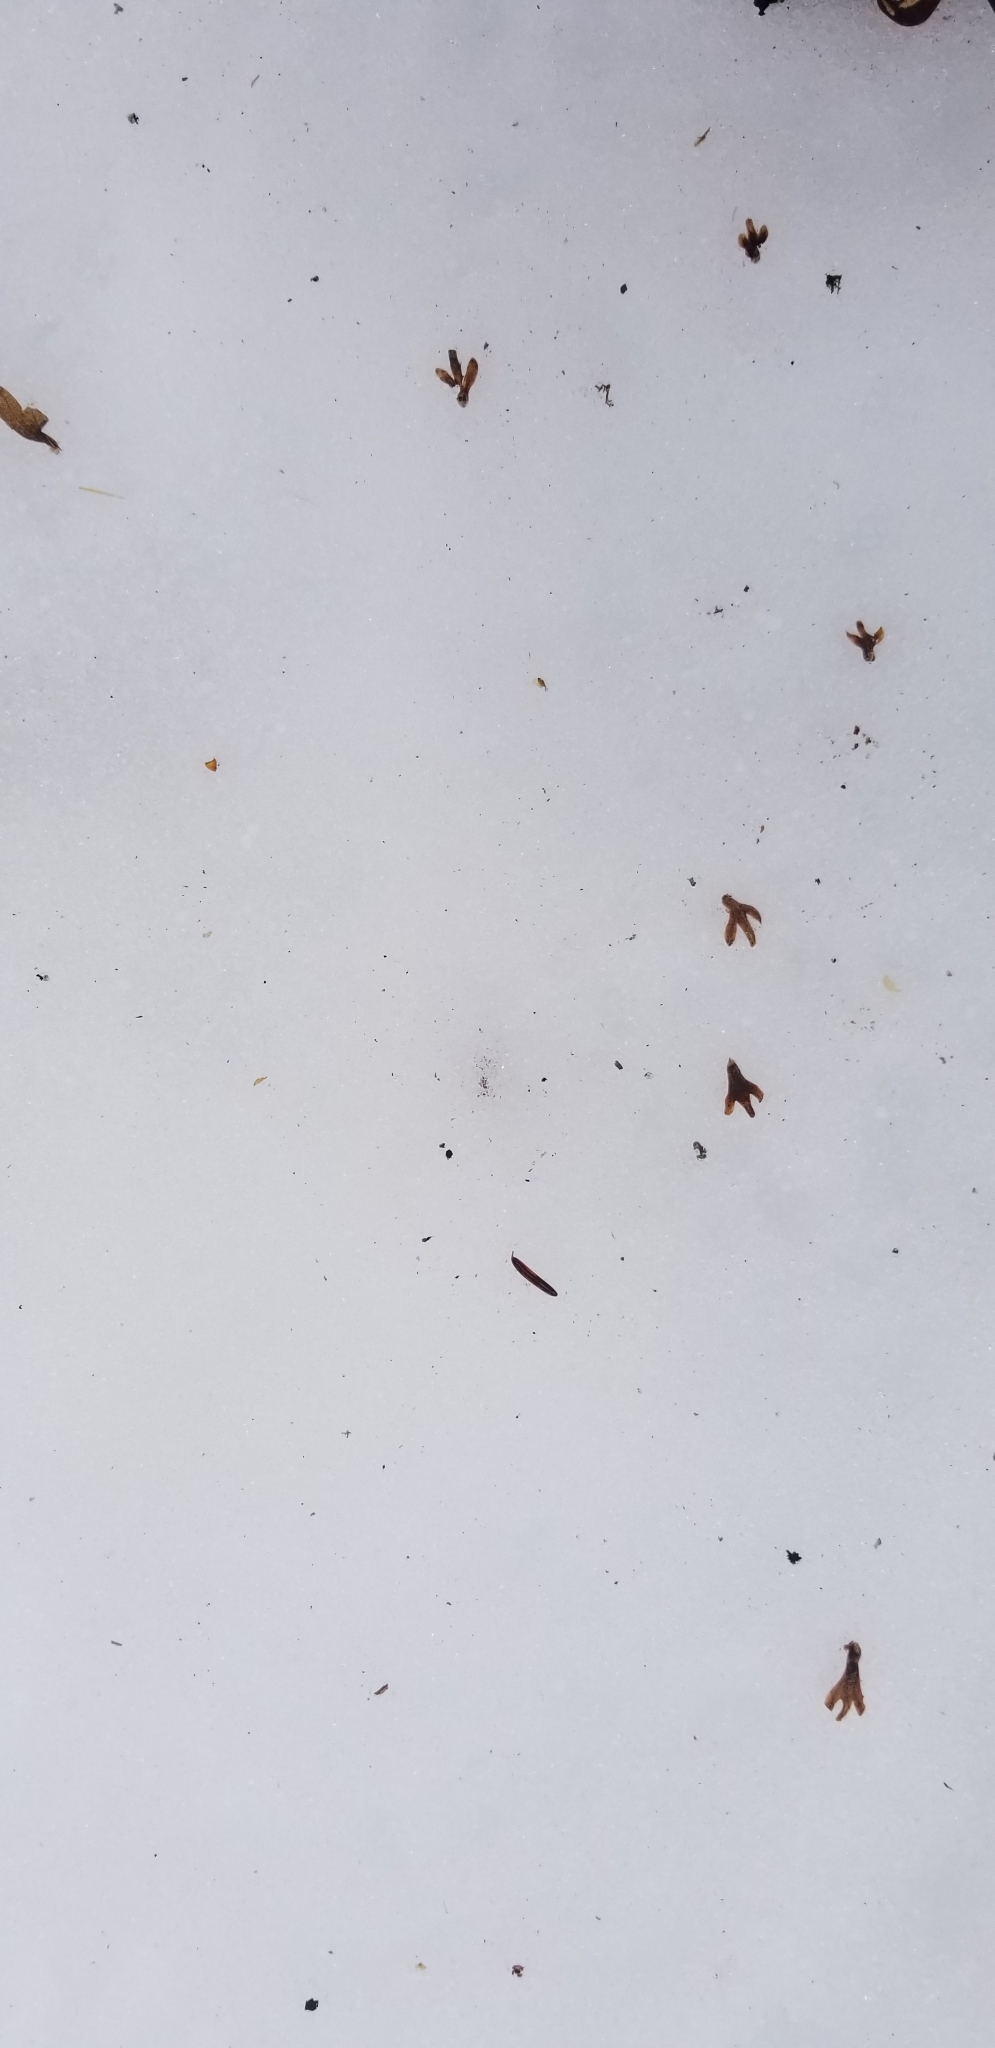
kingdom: Plantae
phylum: Tracheophyta
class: Magnoliopsida
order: Fagales
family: Betulaceae
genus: Betula
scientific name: Betula alleghaniensis
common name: Yellow birch
